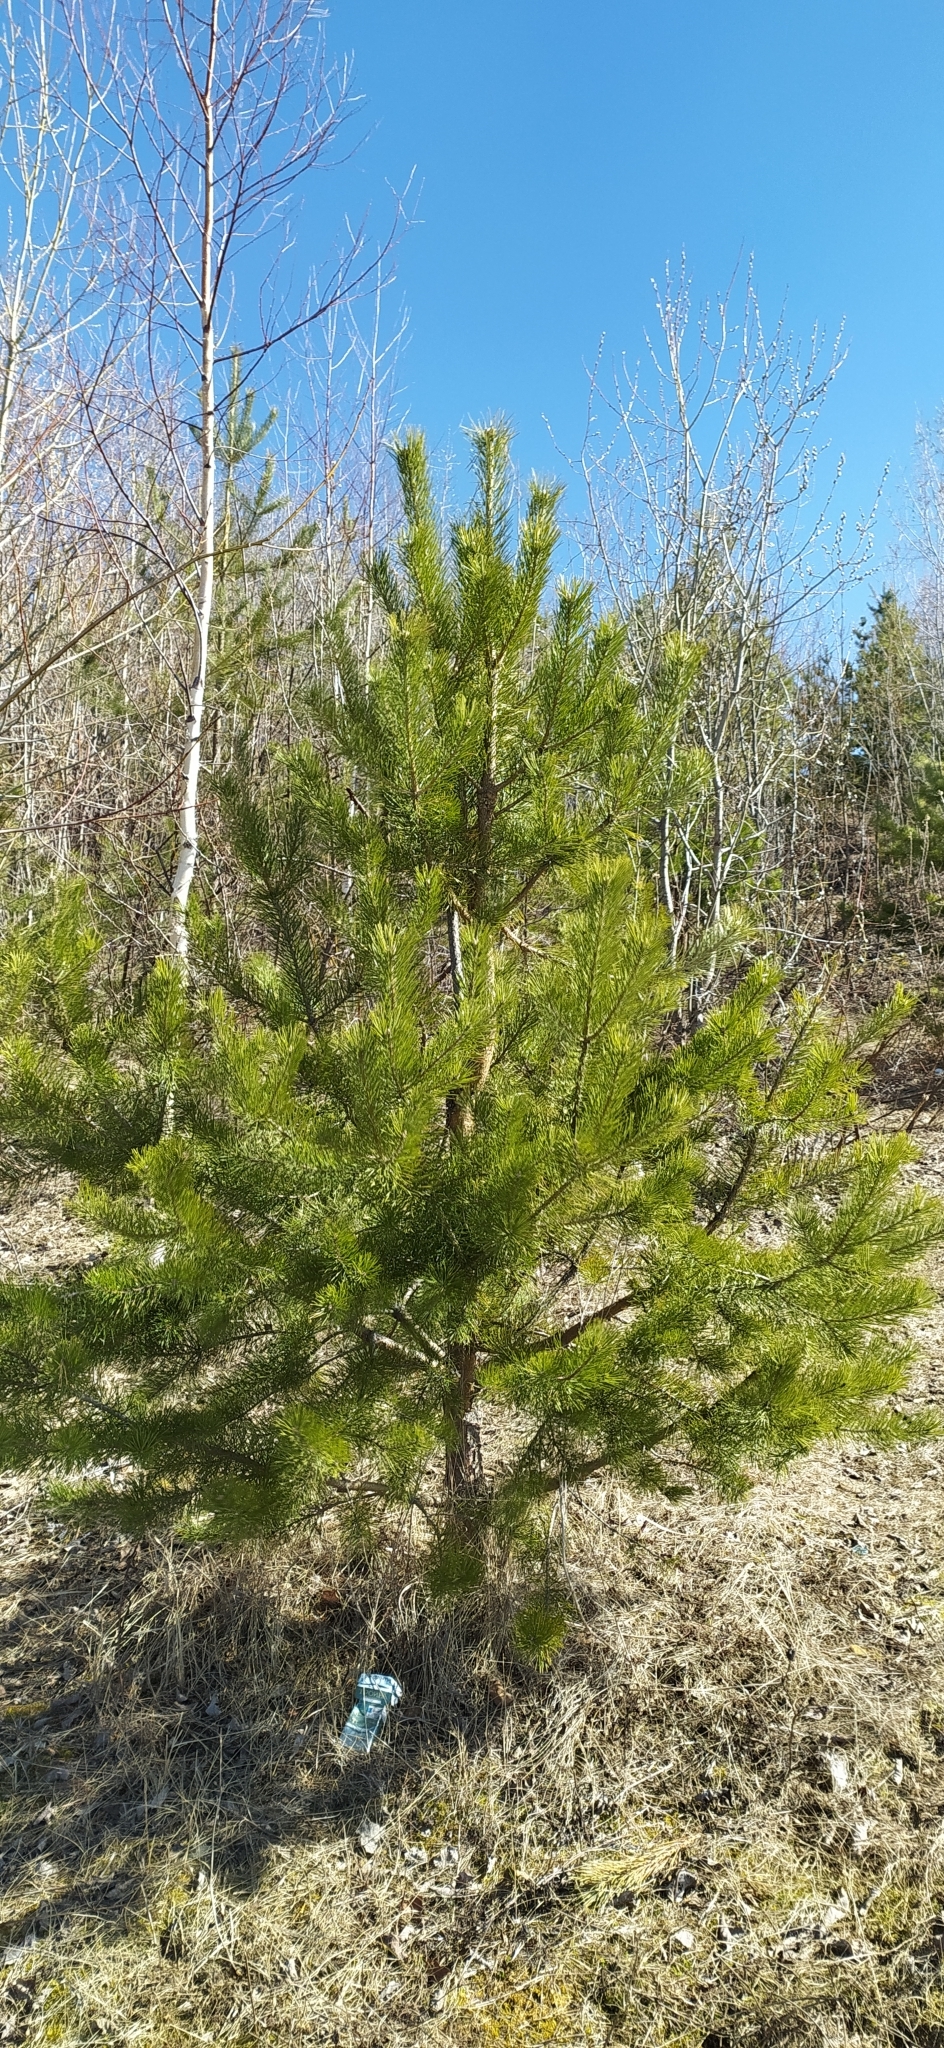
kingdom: Plantae
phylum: Tracheophyta
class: Pinopsida
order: Pinales
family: Pinaceae
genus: Pinus
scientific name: Pinus sylvestris
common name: Scots pine
